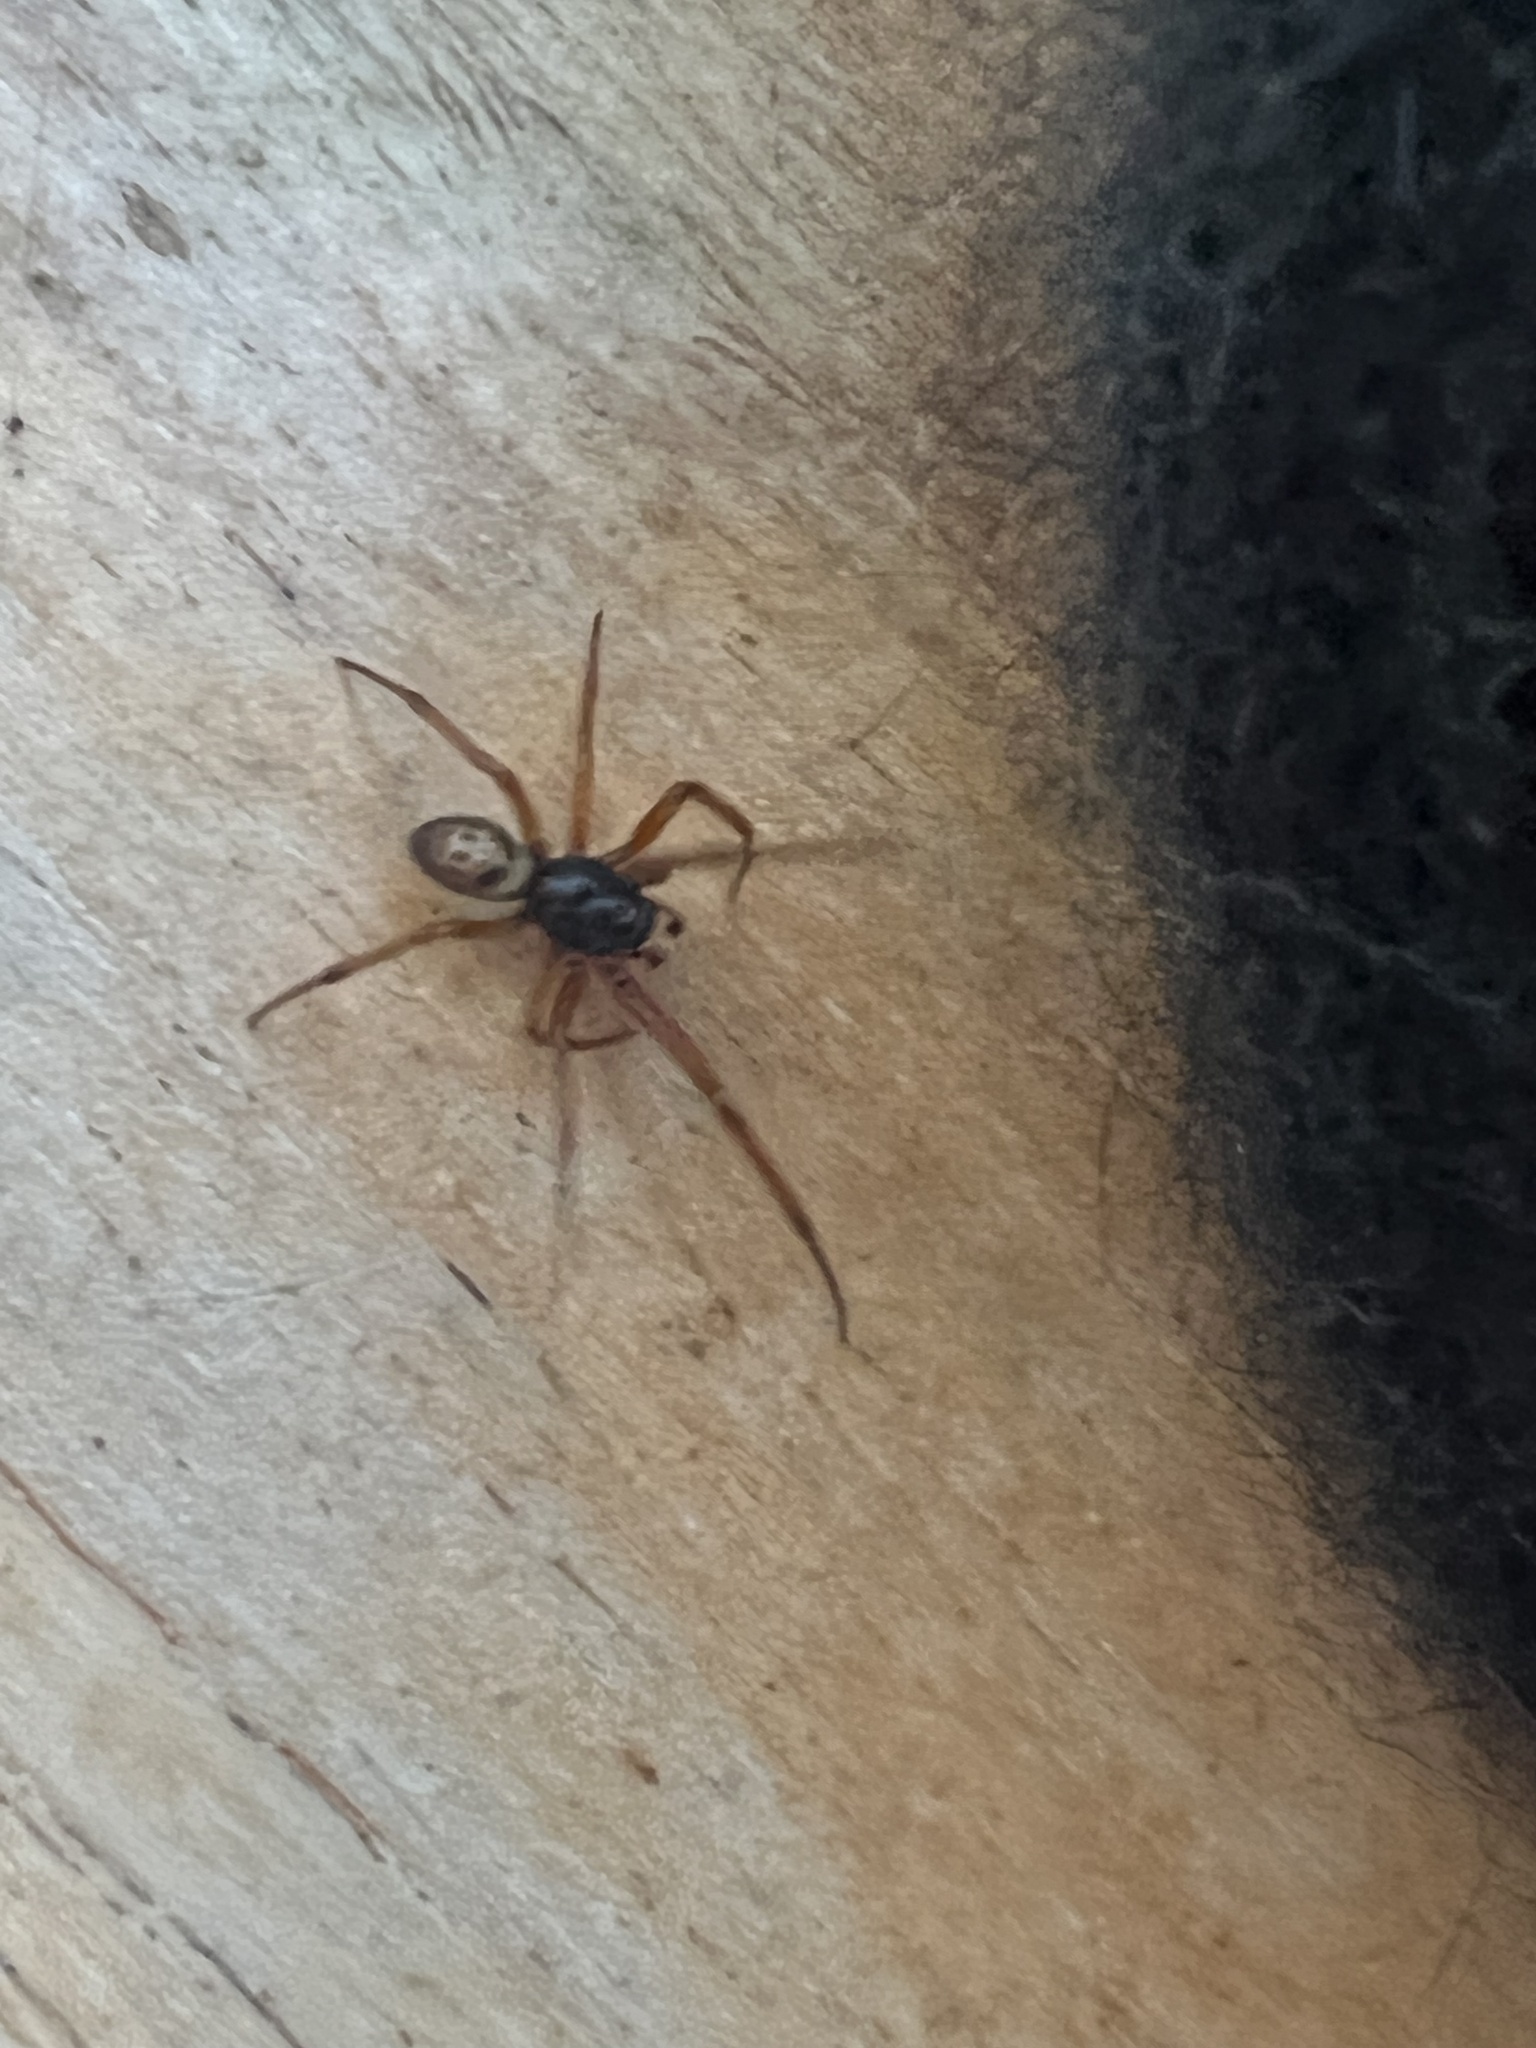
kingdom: Animalia
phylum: Arthropoda
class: Arachnida
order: Araneae
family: Theridiidae
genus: Steatoda
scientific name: Steatoda nobilis
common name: Cobweb weaver
